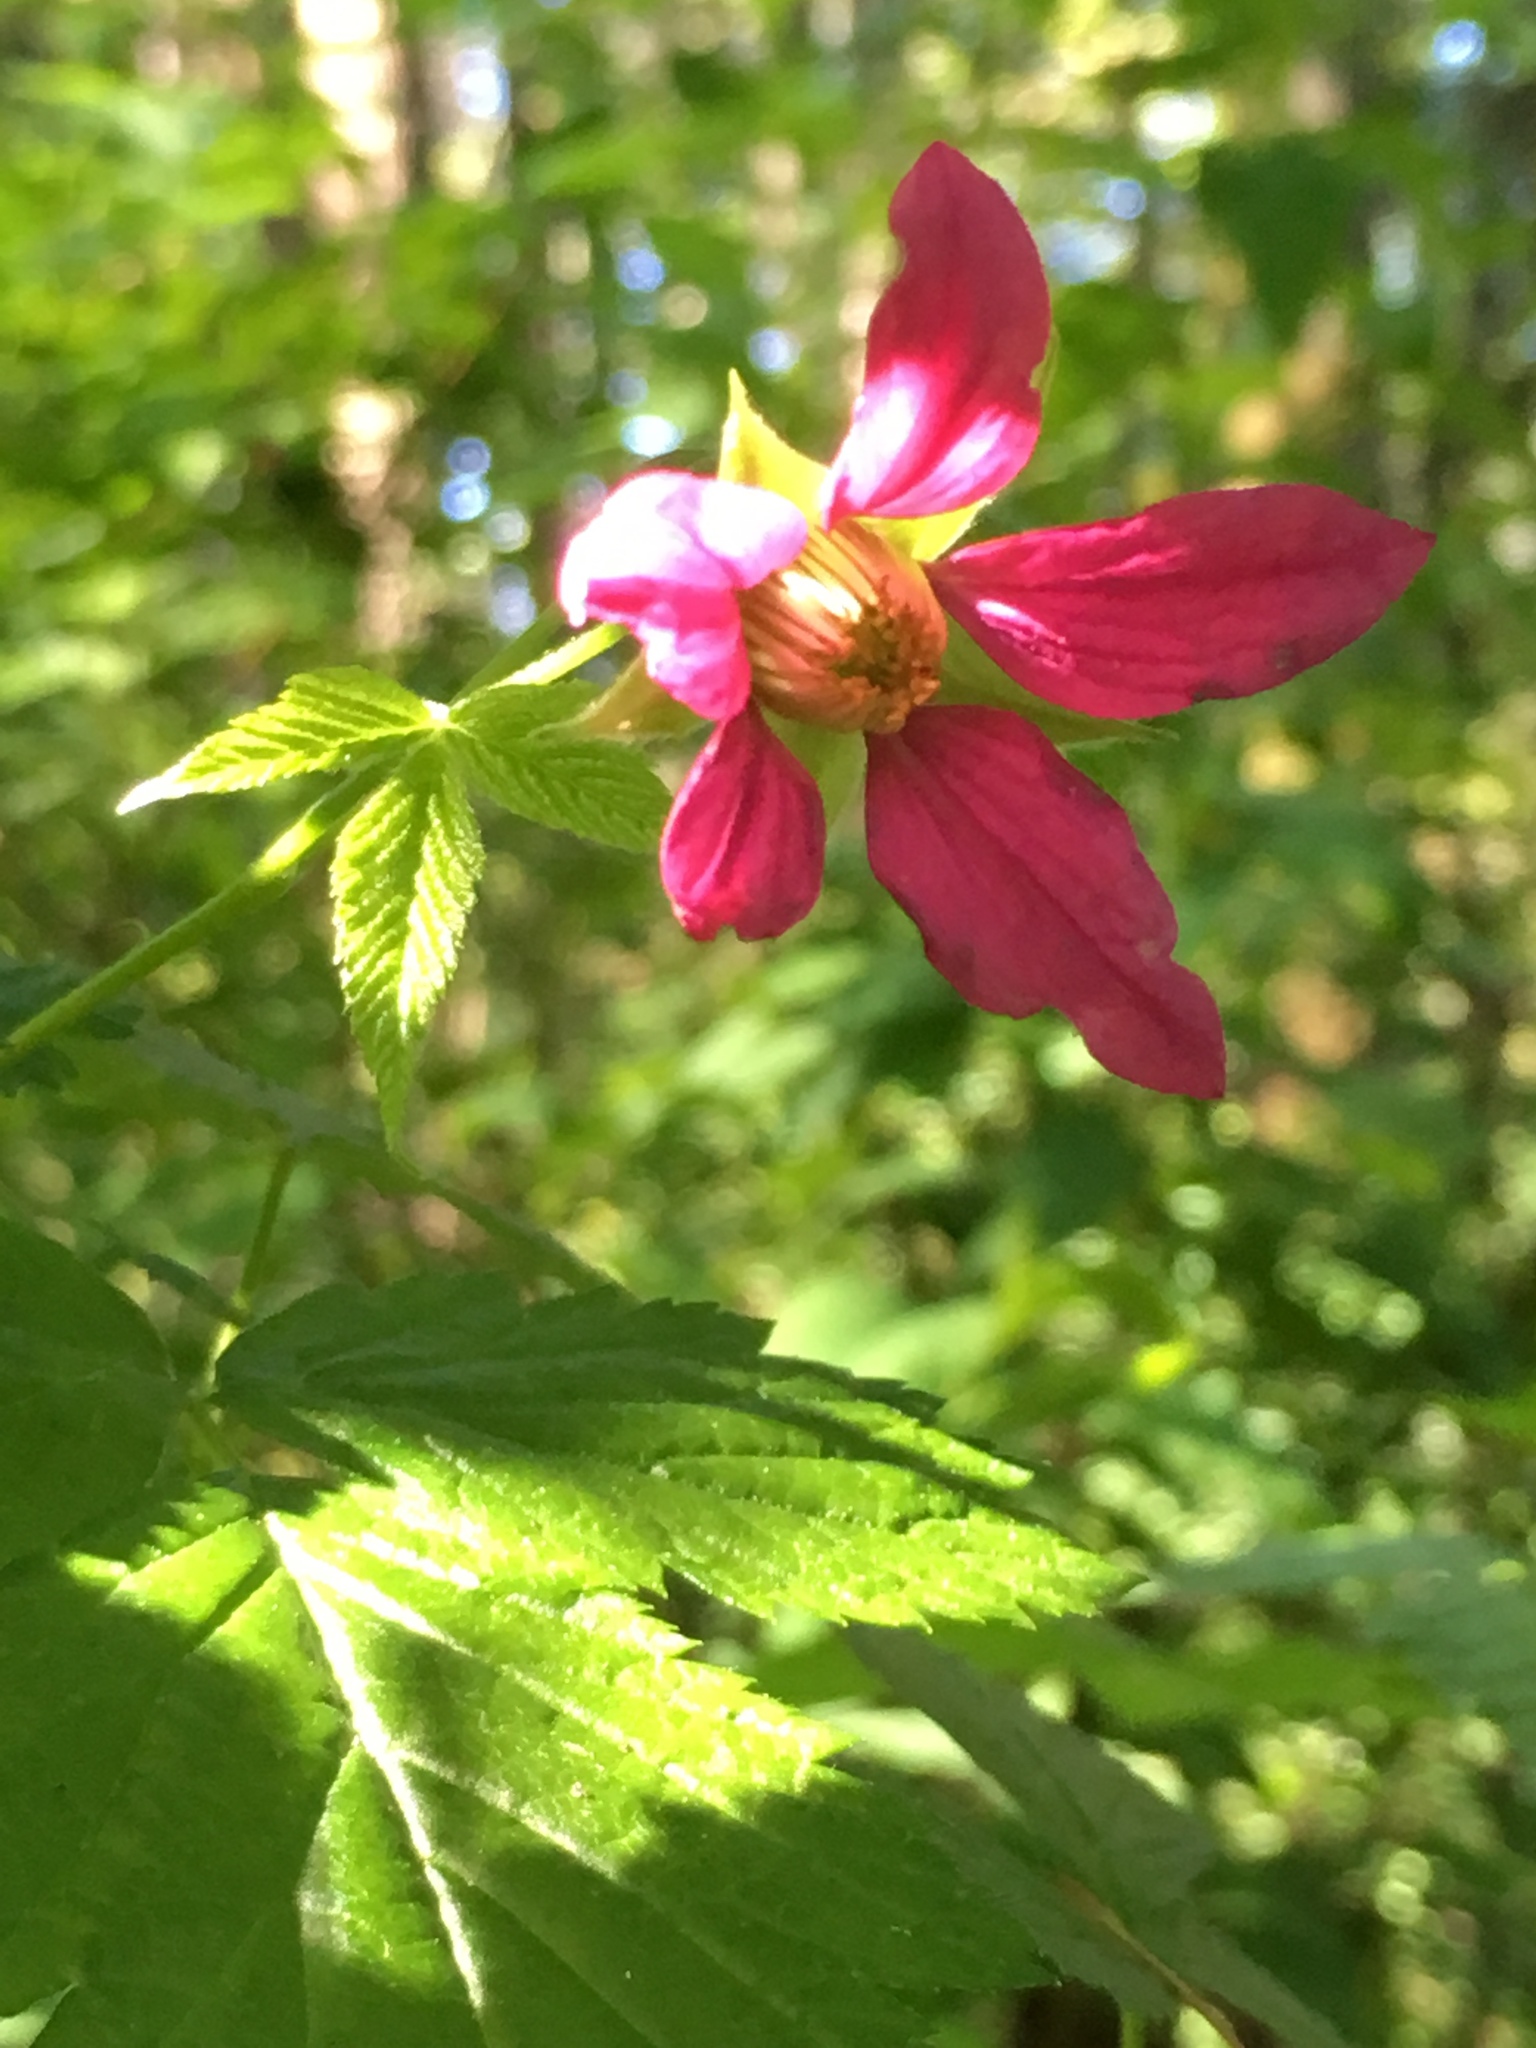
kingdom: Plantae
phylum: Tracheophyta
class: Magnoliopsida
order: Rosales
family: Rosaceae
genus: Rubus
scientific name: Rubus spectabilis
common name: Salmonberry
